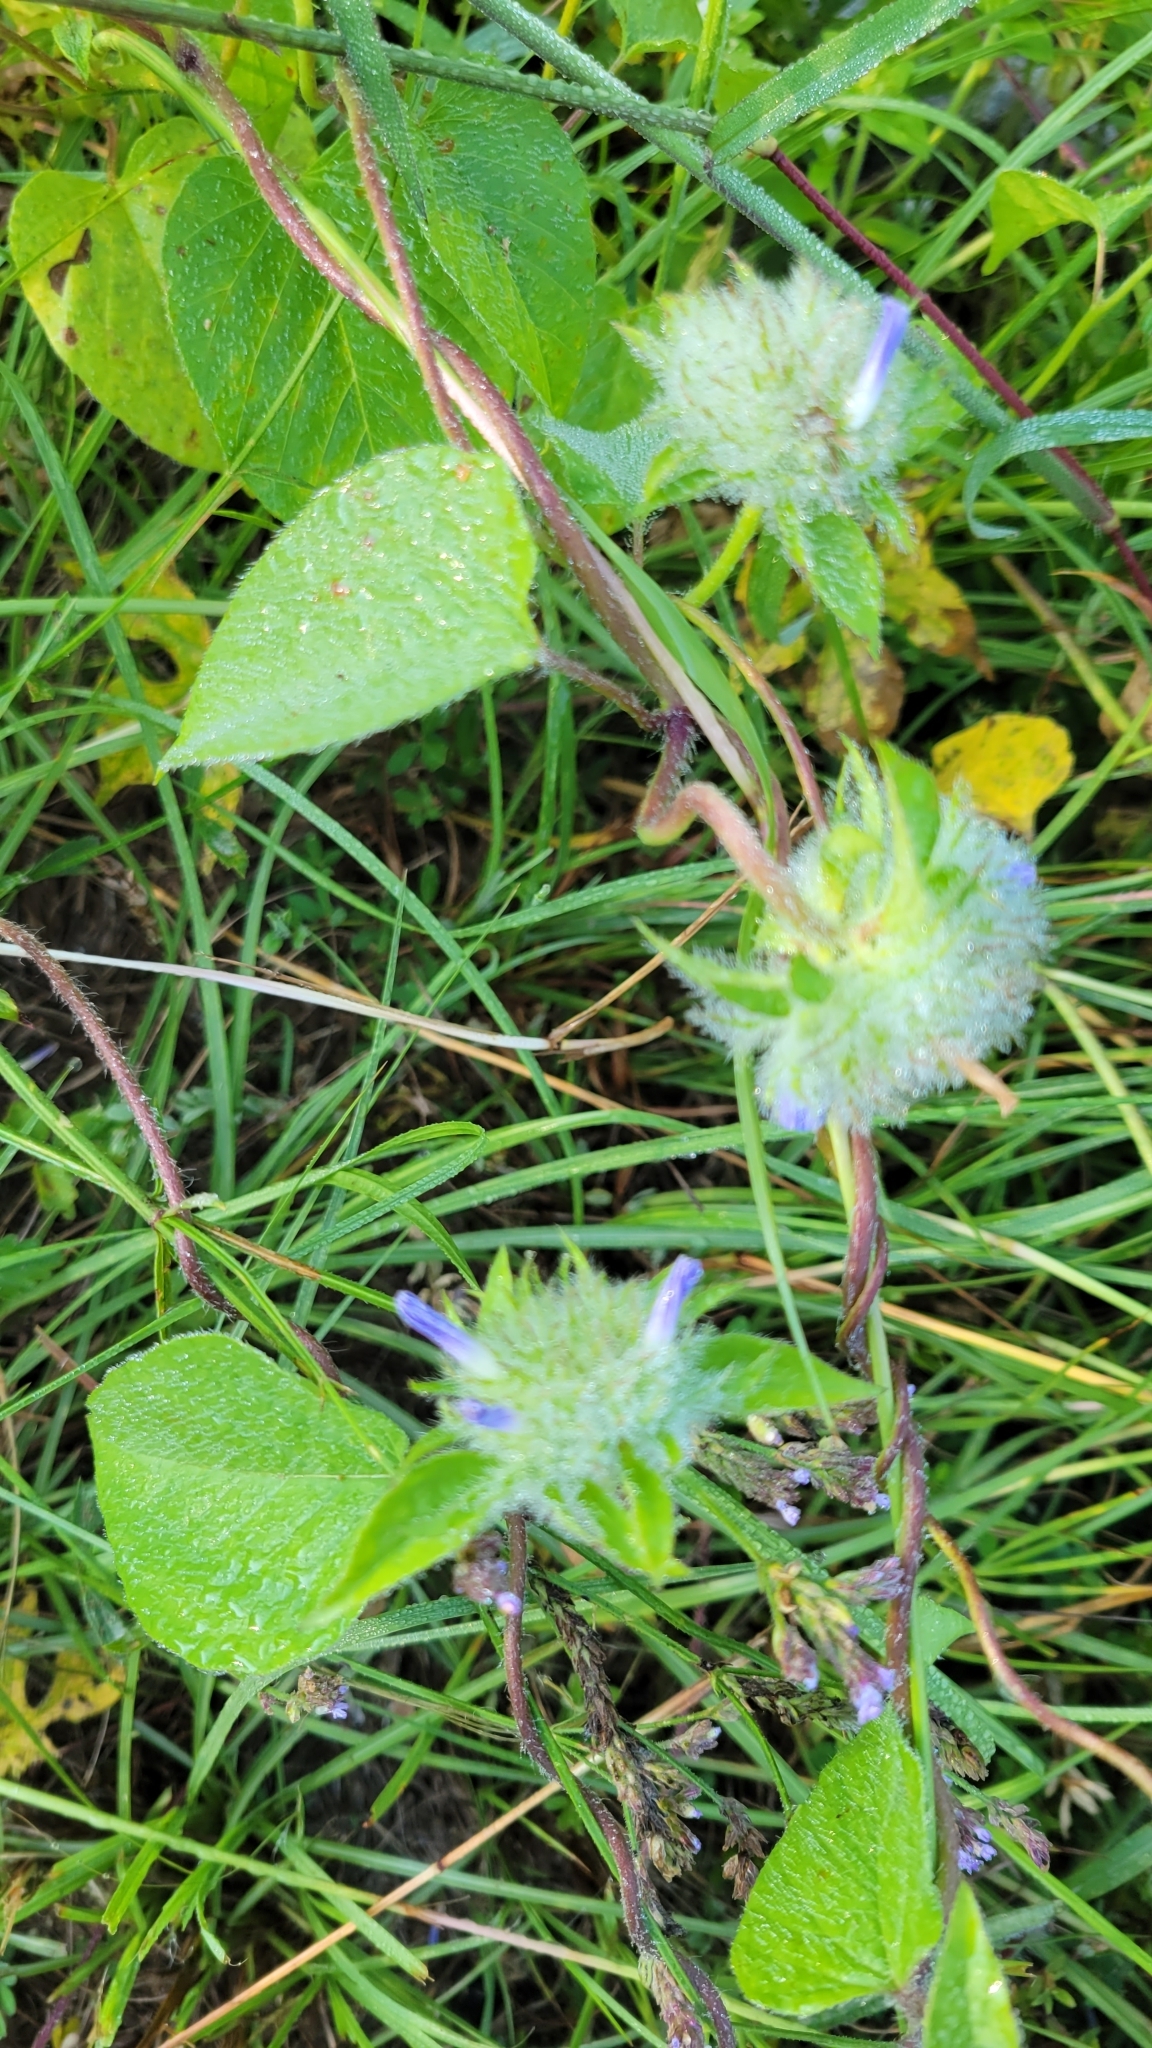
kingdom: Plantae
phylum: Tracheophyta
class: Magnoliopsida
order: Solanales
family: Convolvulaceae
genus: Jacquemontia
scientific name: Jacquemontia tamnifolia
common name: Hairy clustervine
